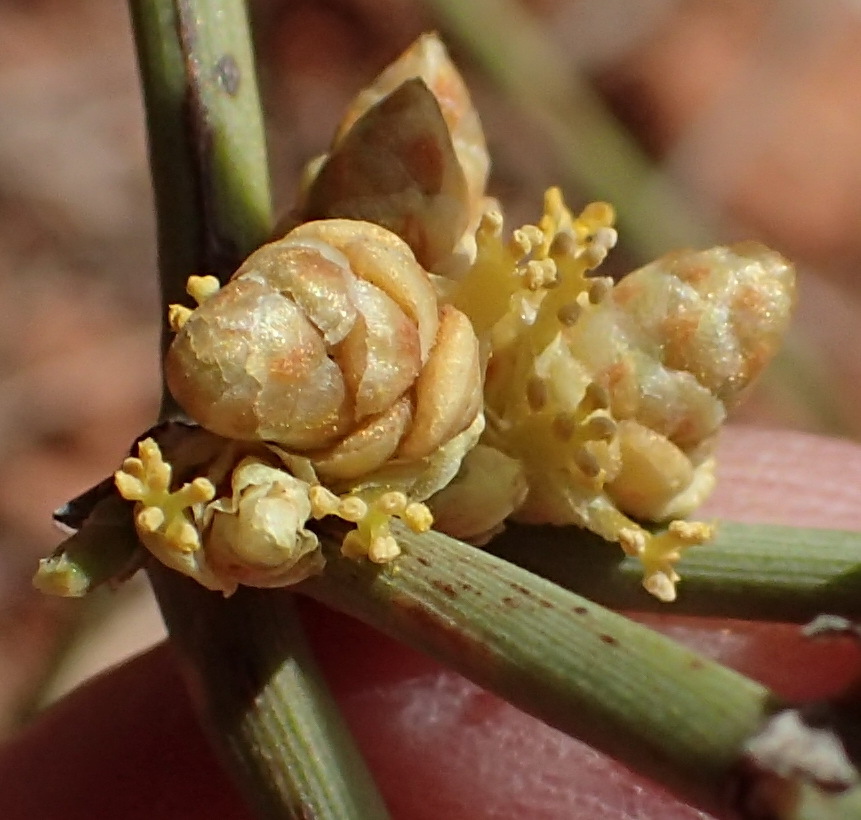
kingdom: Plantae
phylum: Tracheophyta
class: Gnetopsida
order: Ephedrales
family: Ephedraceae
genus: Ephedra
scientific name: Ephedra torreyana
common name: Torrey ephedra
